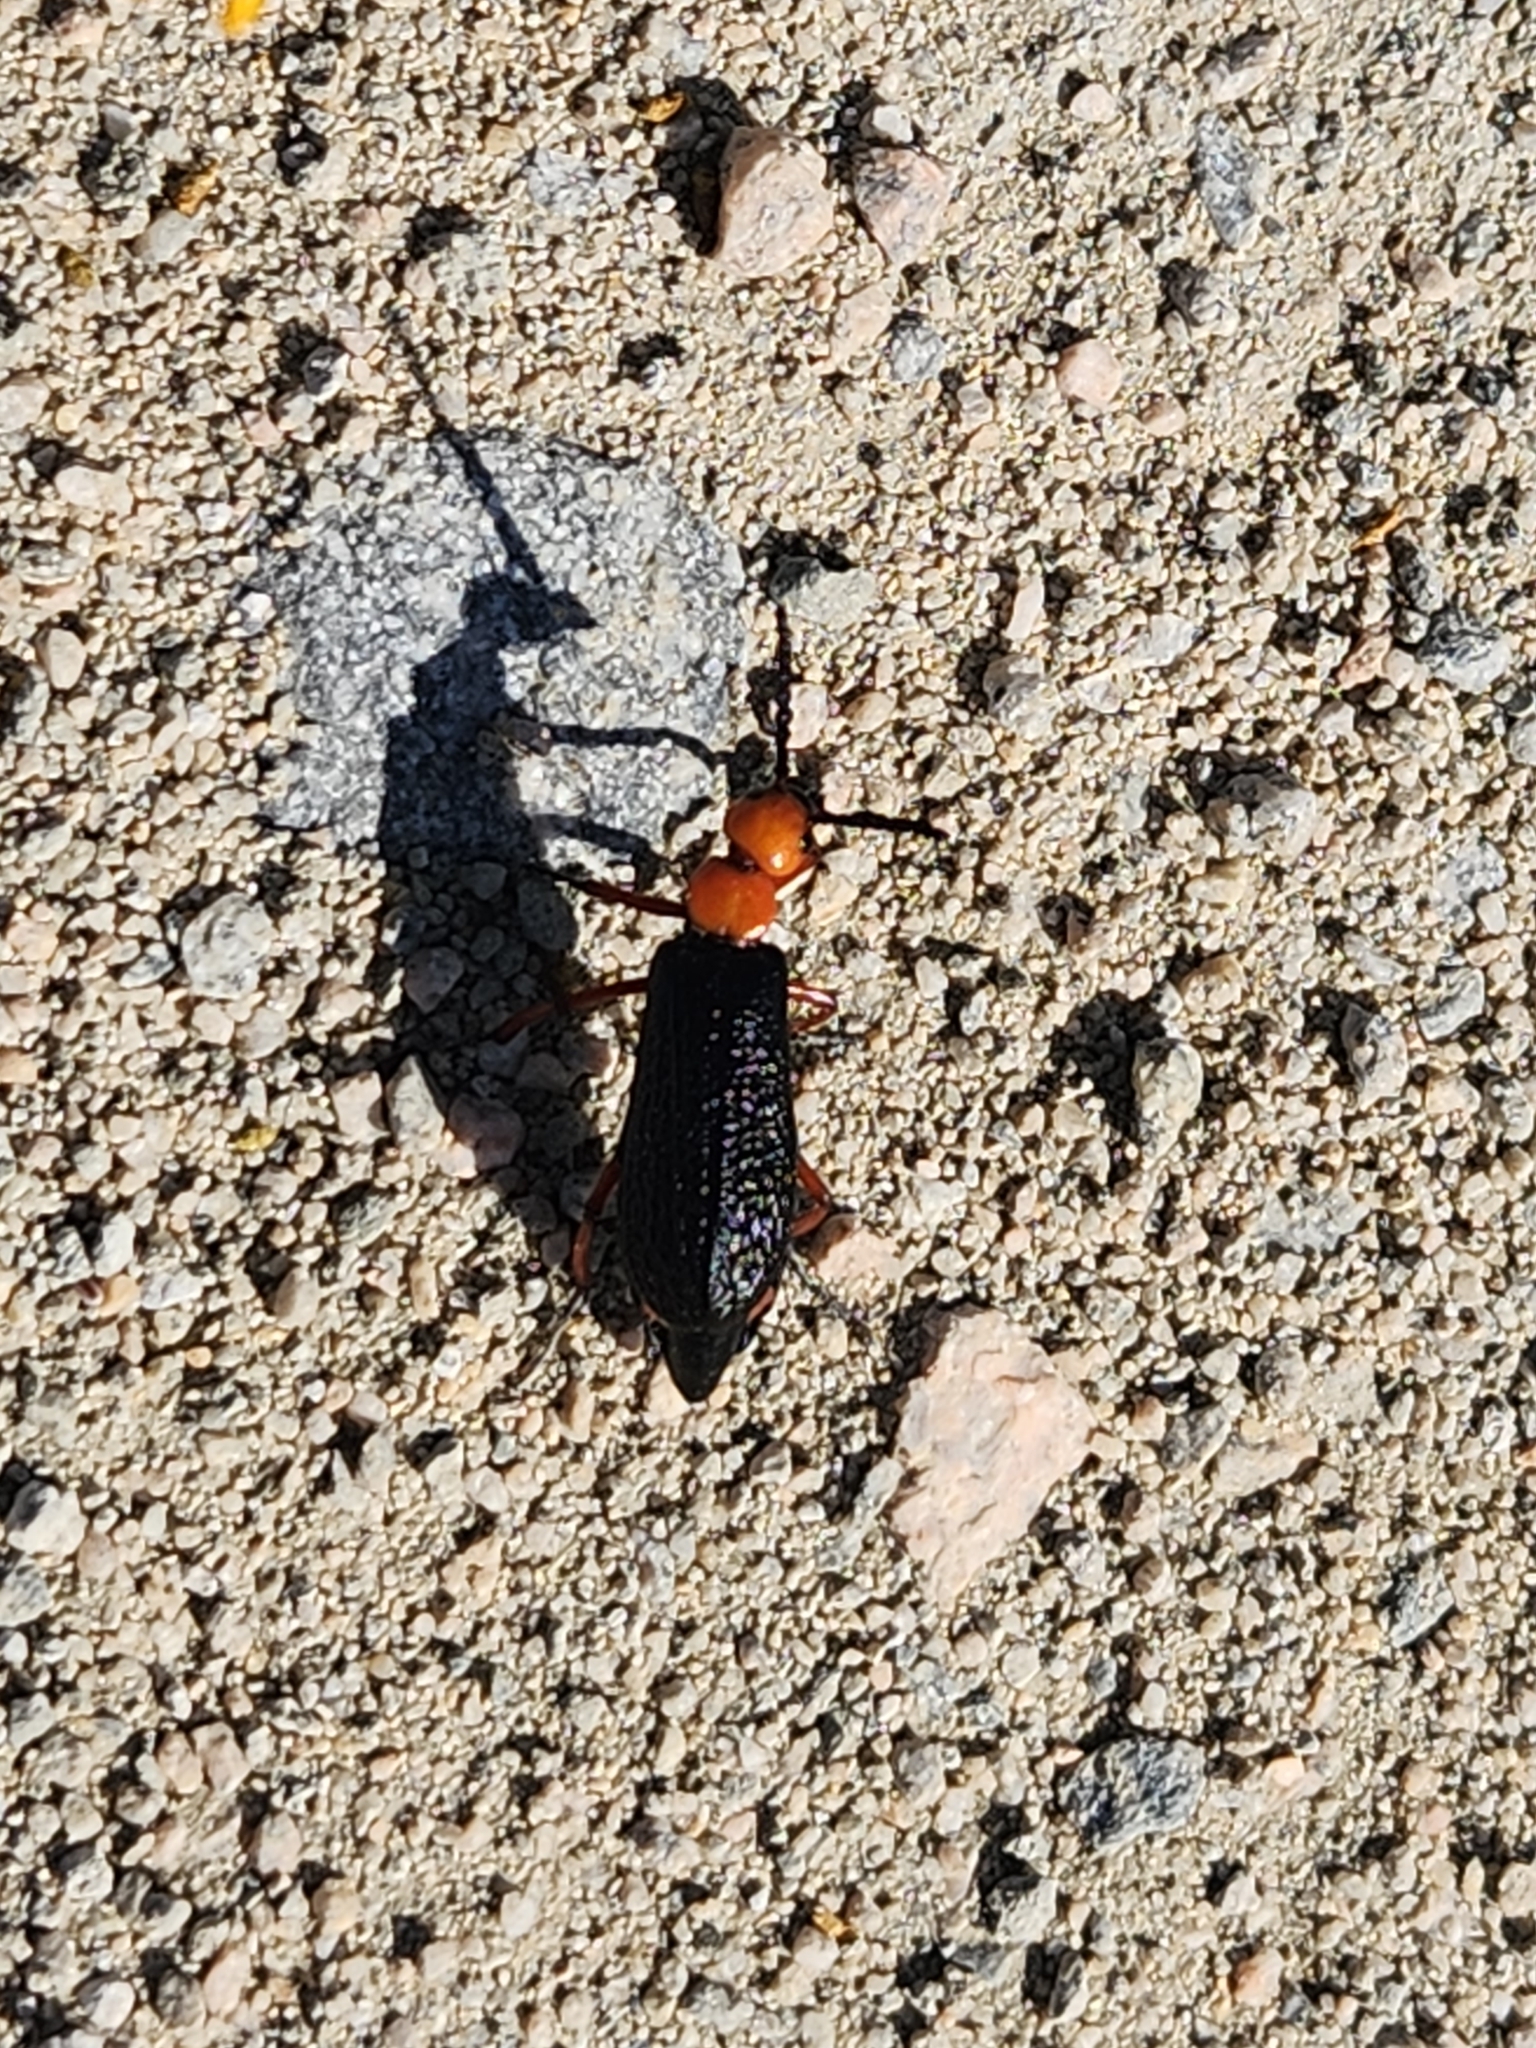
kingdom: Animalia
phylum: Arthropoda
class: Insecta
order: Coleoptera
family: Meloidae
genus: Lytta
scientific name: Lytta magister
